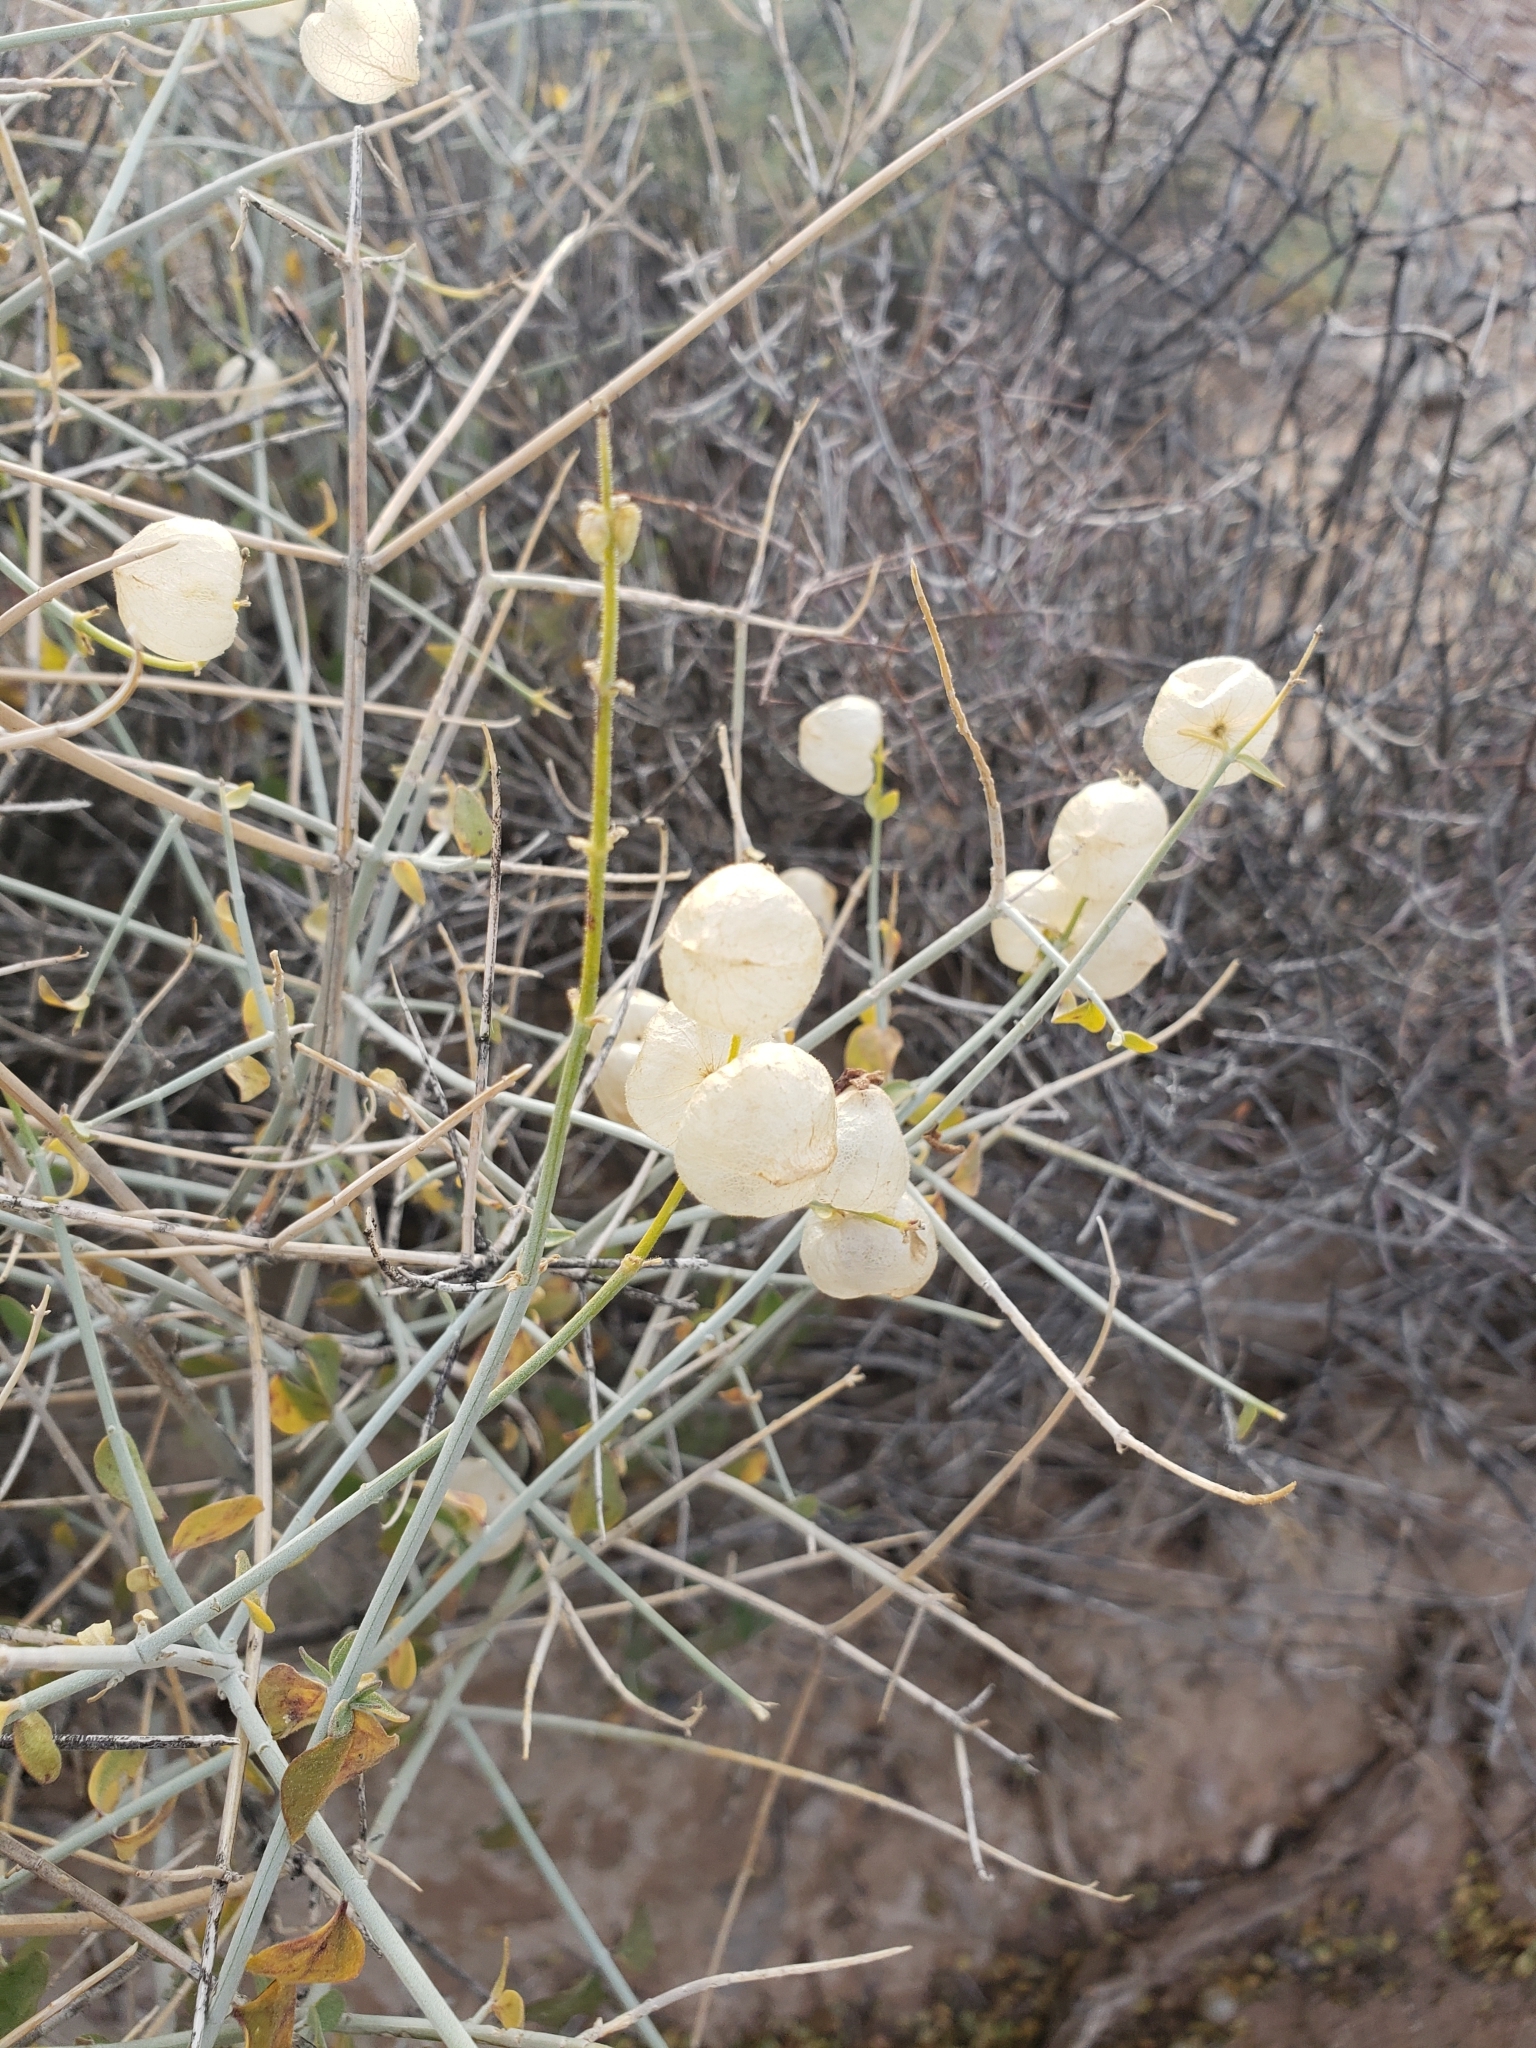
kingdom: Plantae
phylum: Tracheophyta
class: Magnoliopsida
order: Lamiales
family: Lamiaceae
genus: Scutellaria
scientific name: Scutellaria mexicana
